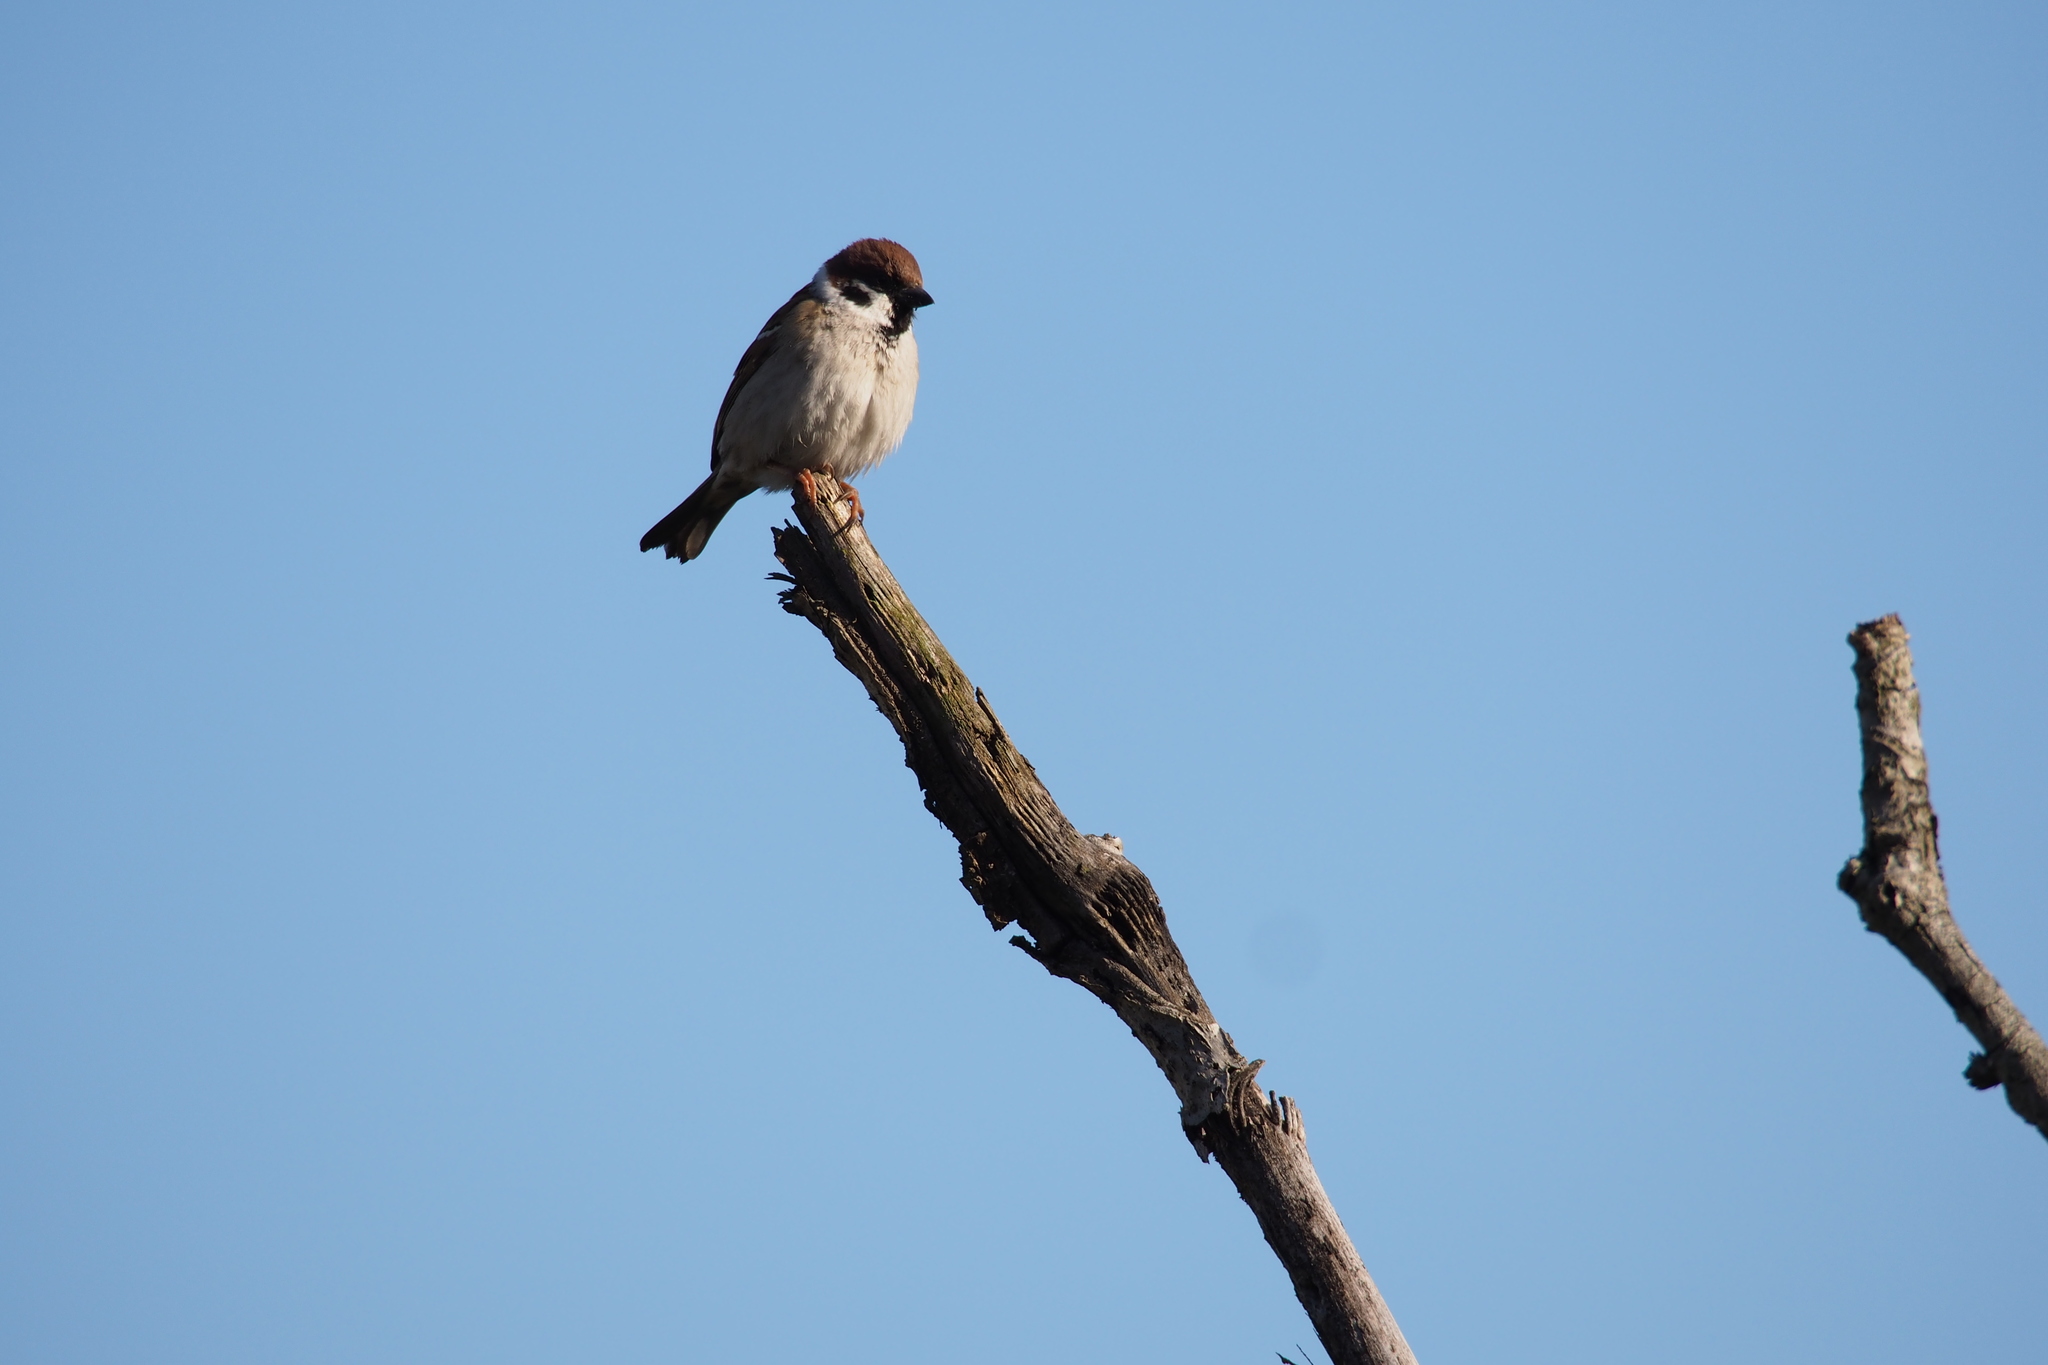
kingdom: Animalia
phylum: Chordata
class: Aves
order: Passeriformes
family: Passeridae
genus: Passer
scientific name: Passer montanus
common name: Eurasian tree sparrow
